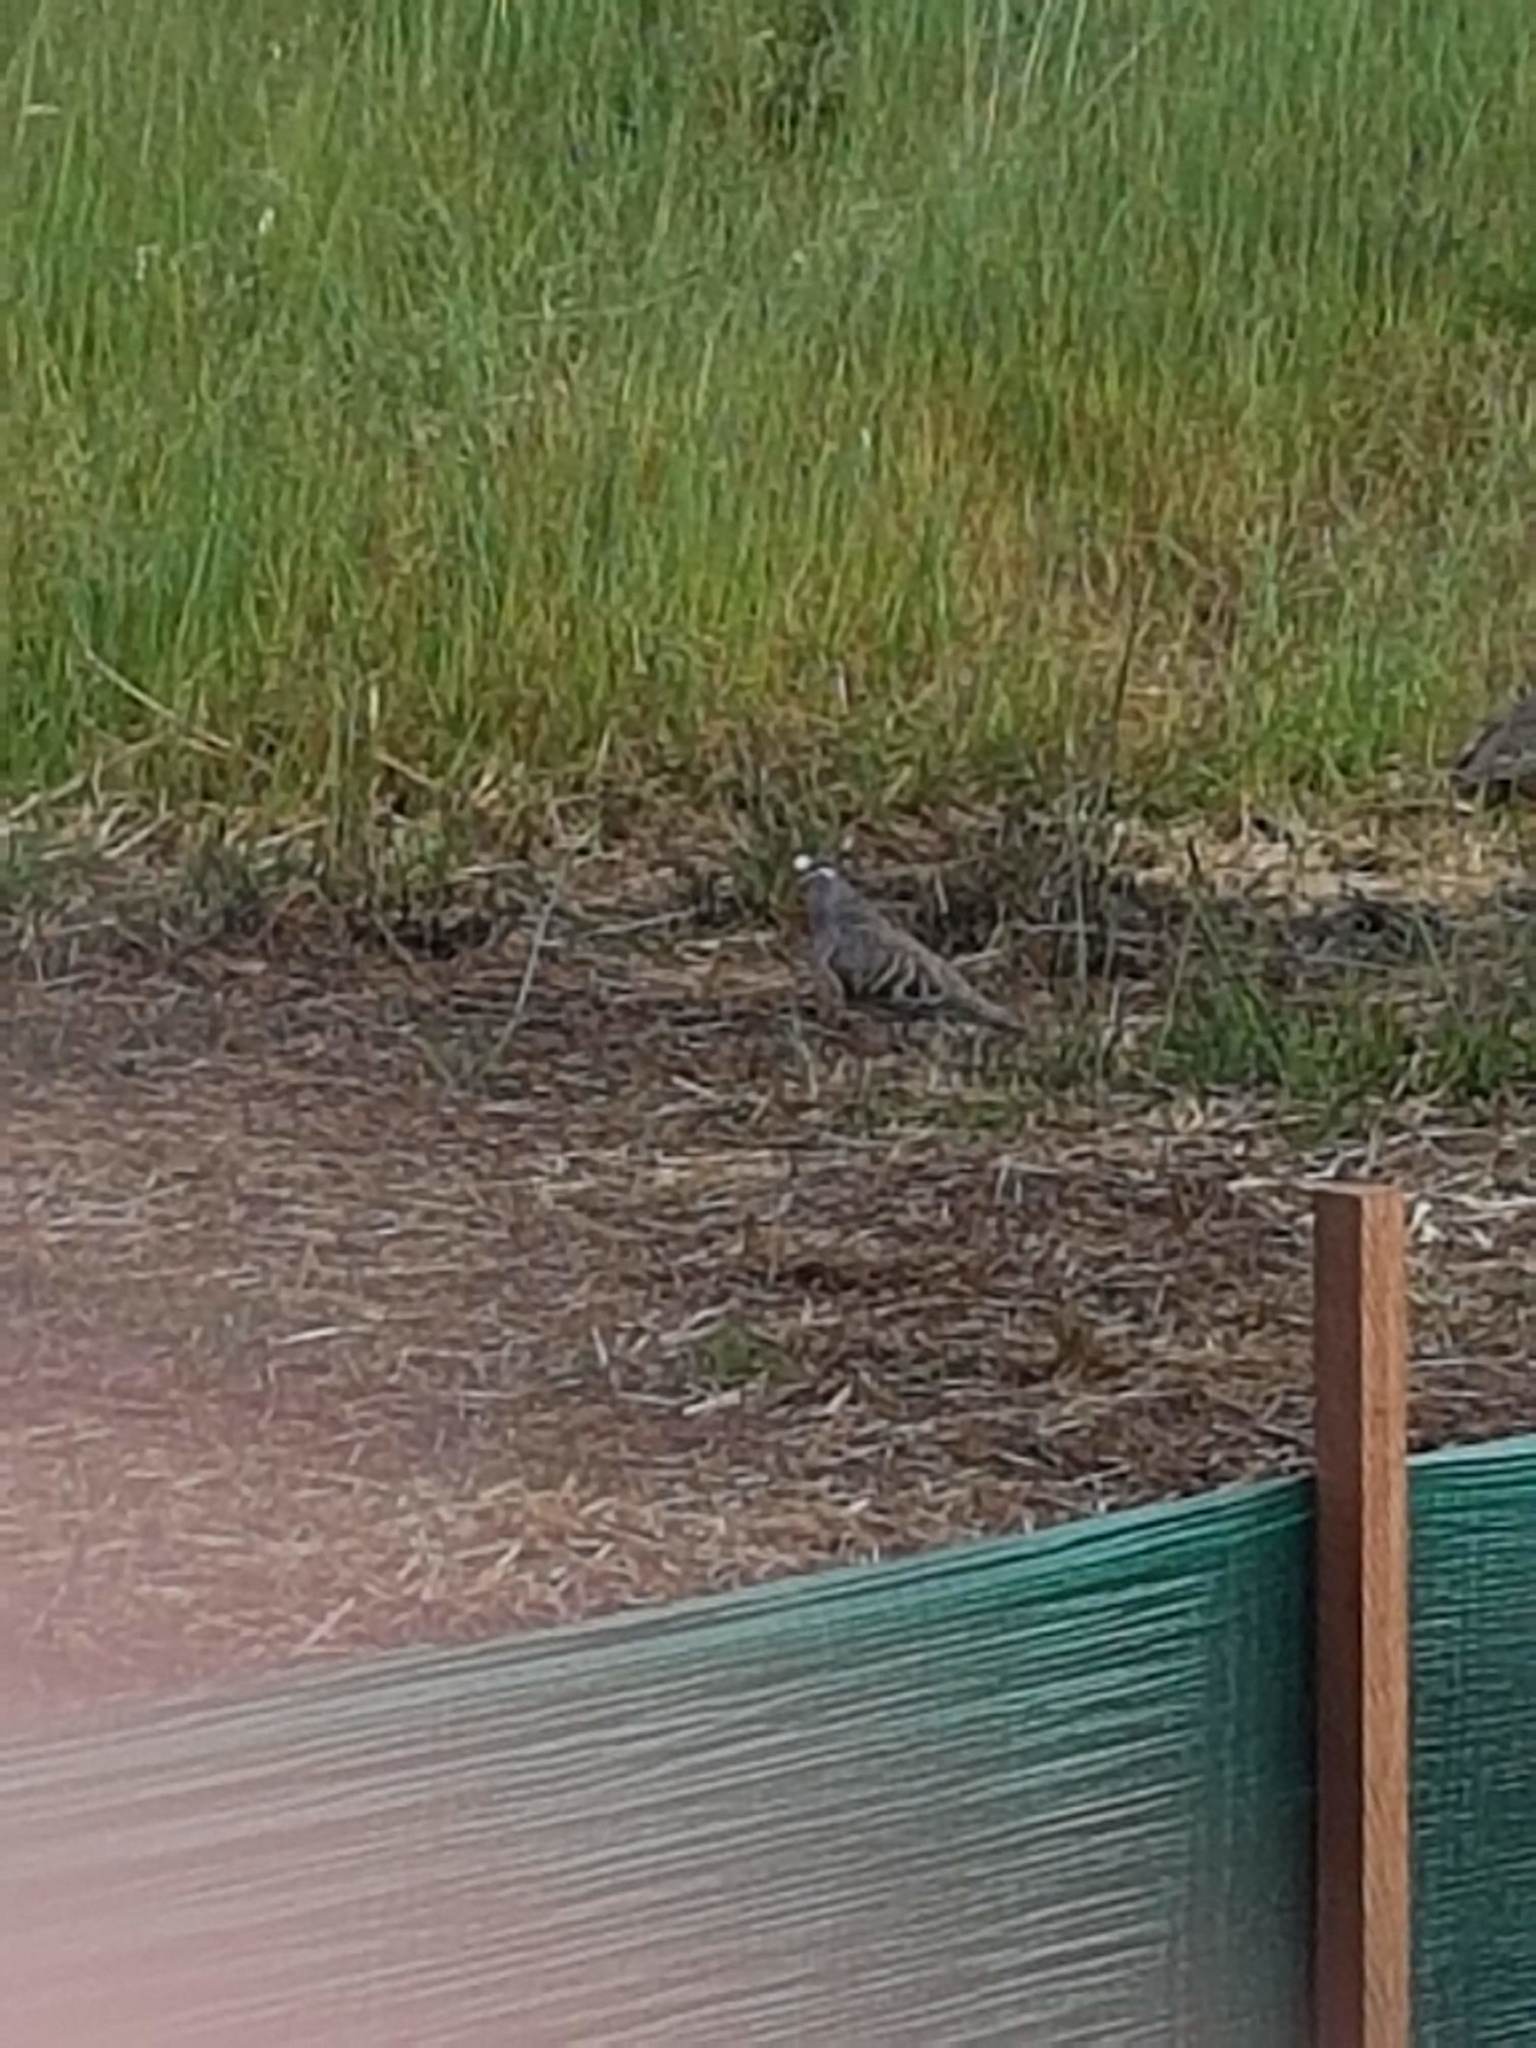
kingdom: Animalia
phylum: Chordata
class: Aves
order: Columbiformes
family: Columbidae
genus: Phaps
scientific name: Phaps chalcoptera
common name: Common bronzewing
